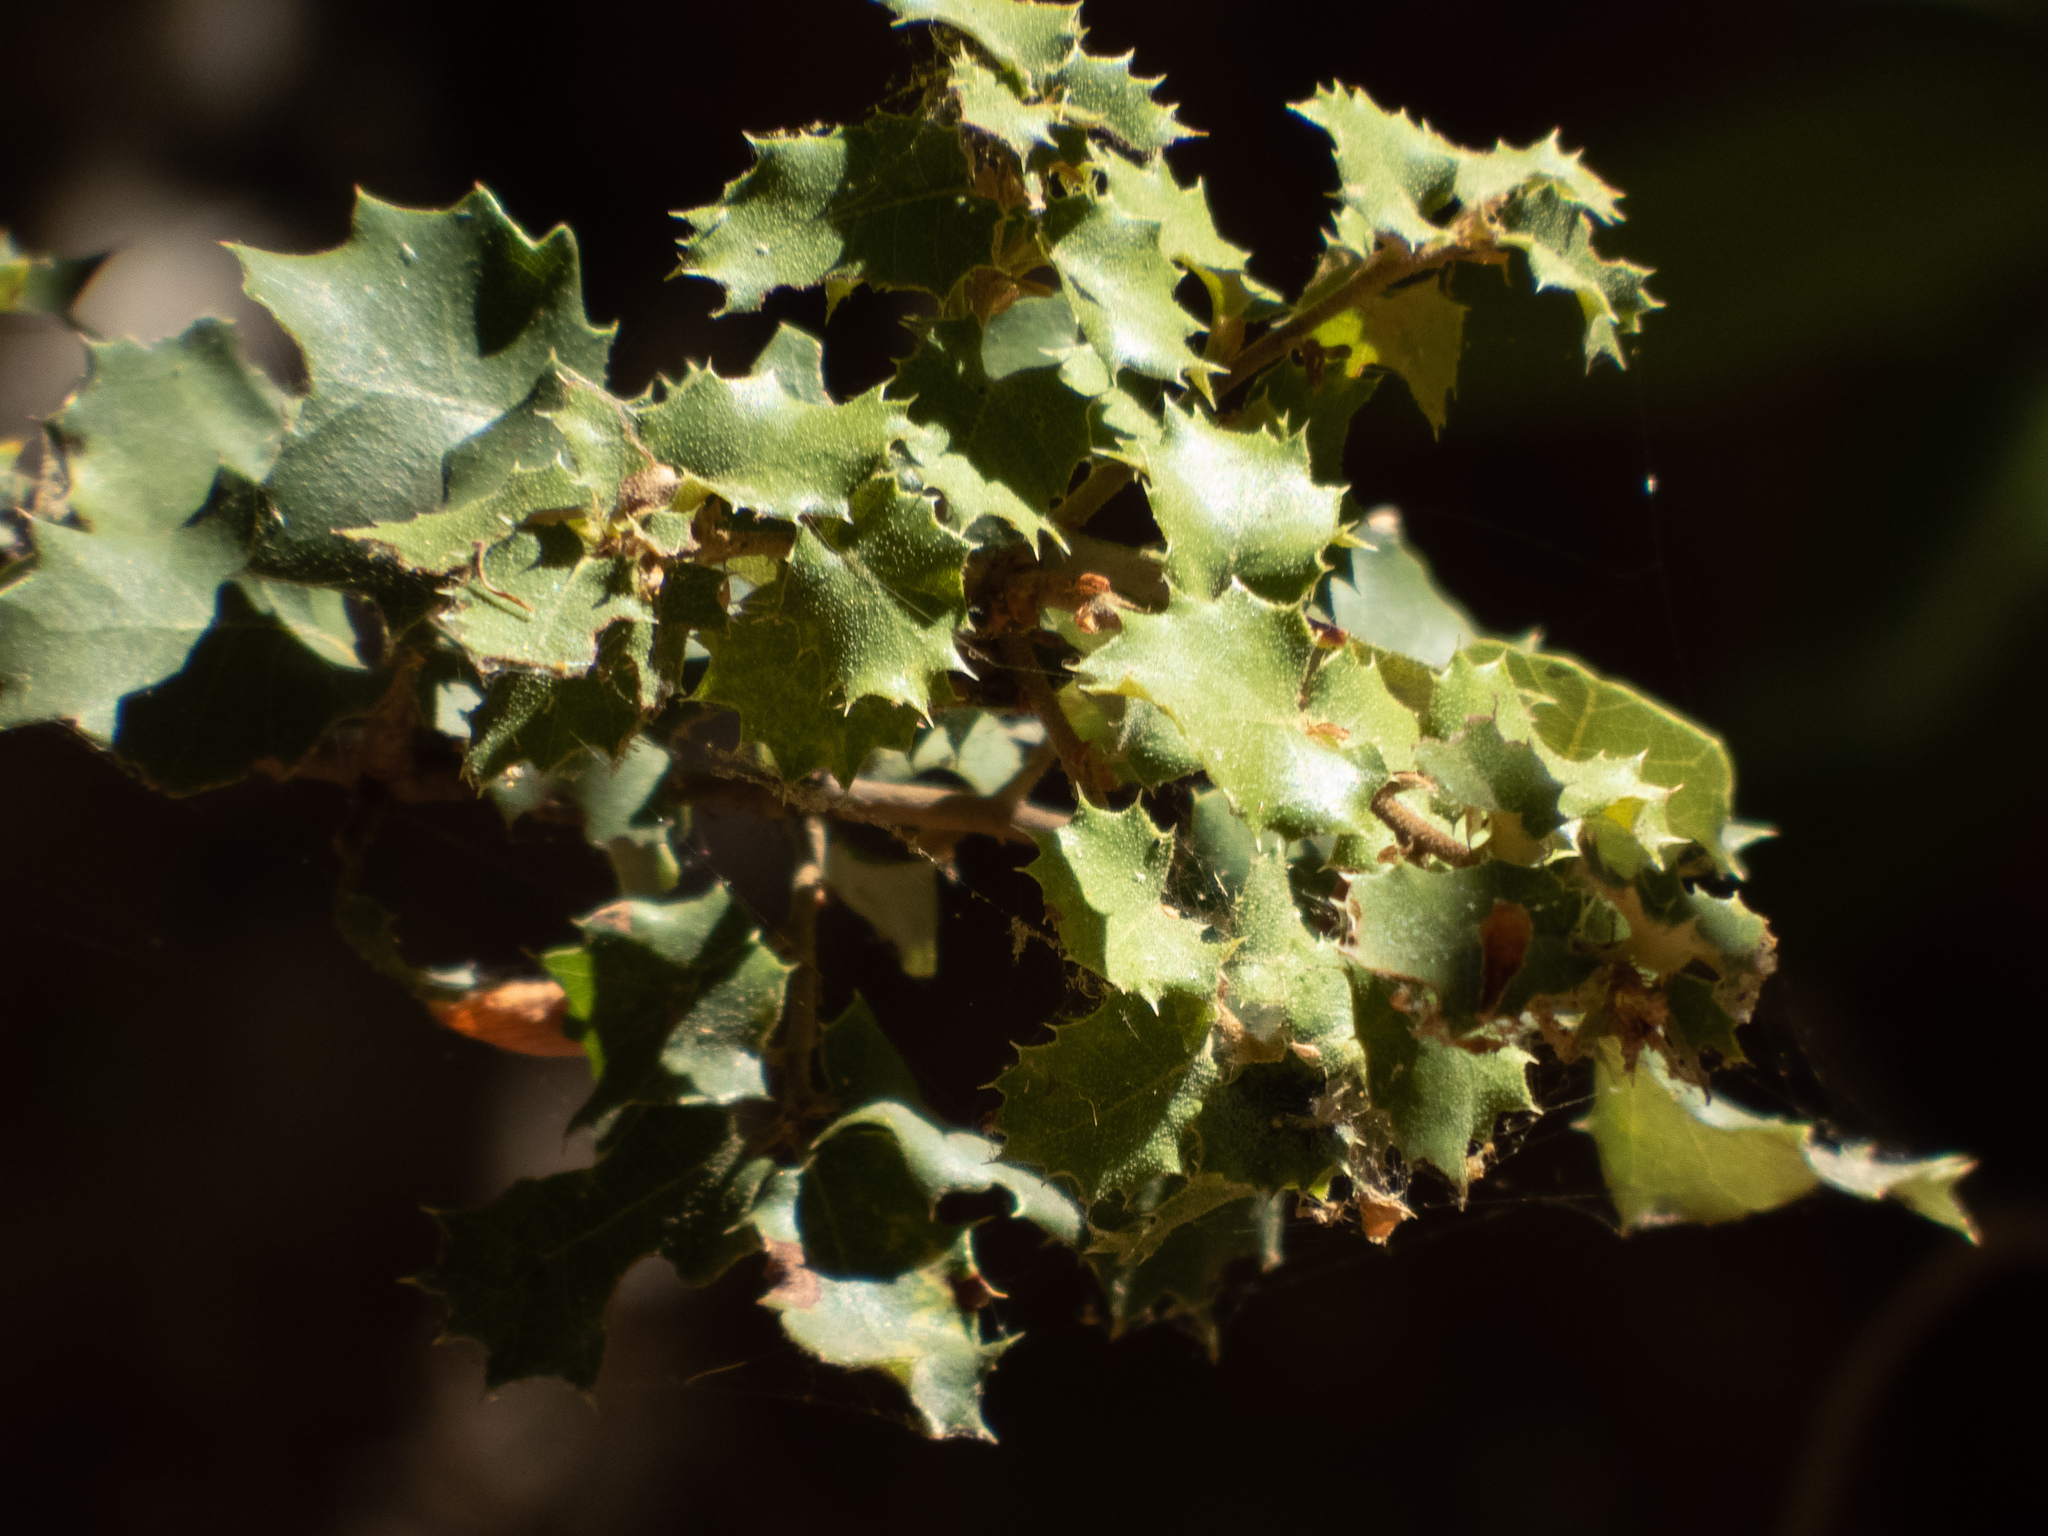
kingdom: Plantae
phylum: Tracheophyta
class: Magnoliopsida
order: Fagales
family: Fagaceae
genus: Quercus
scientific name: Quercus berberidifolia
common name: California scrub oak
